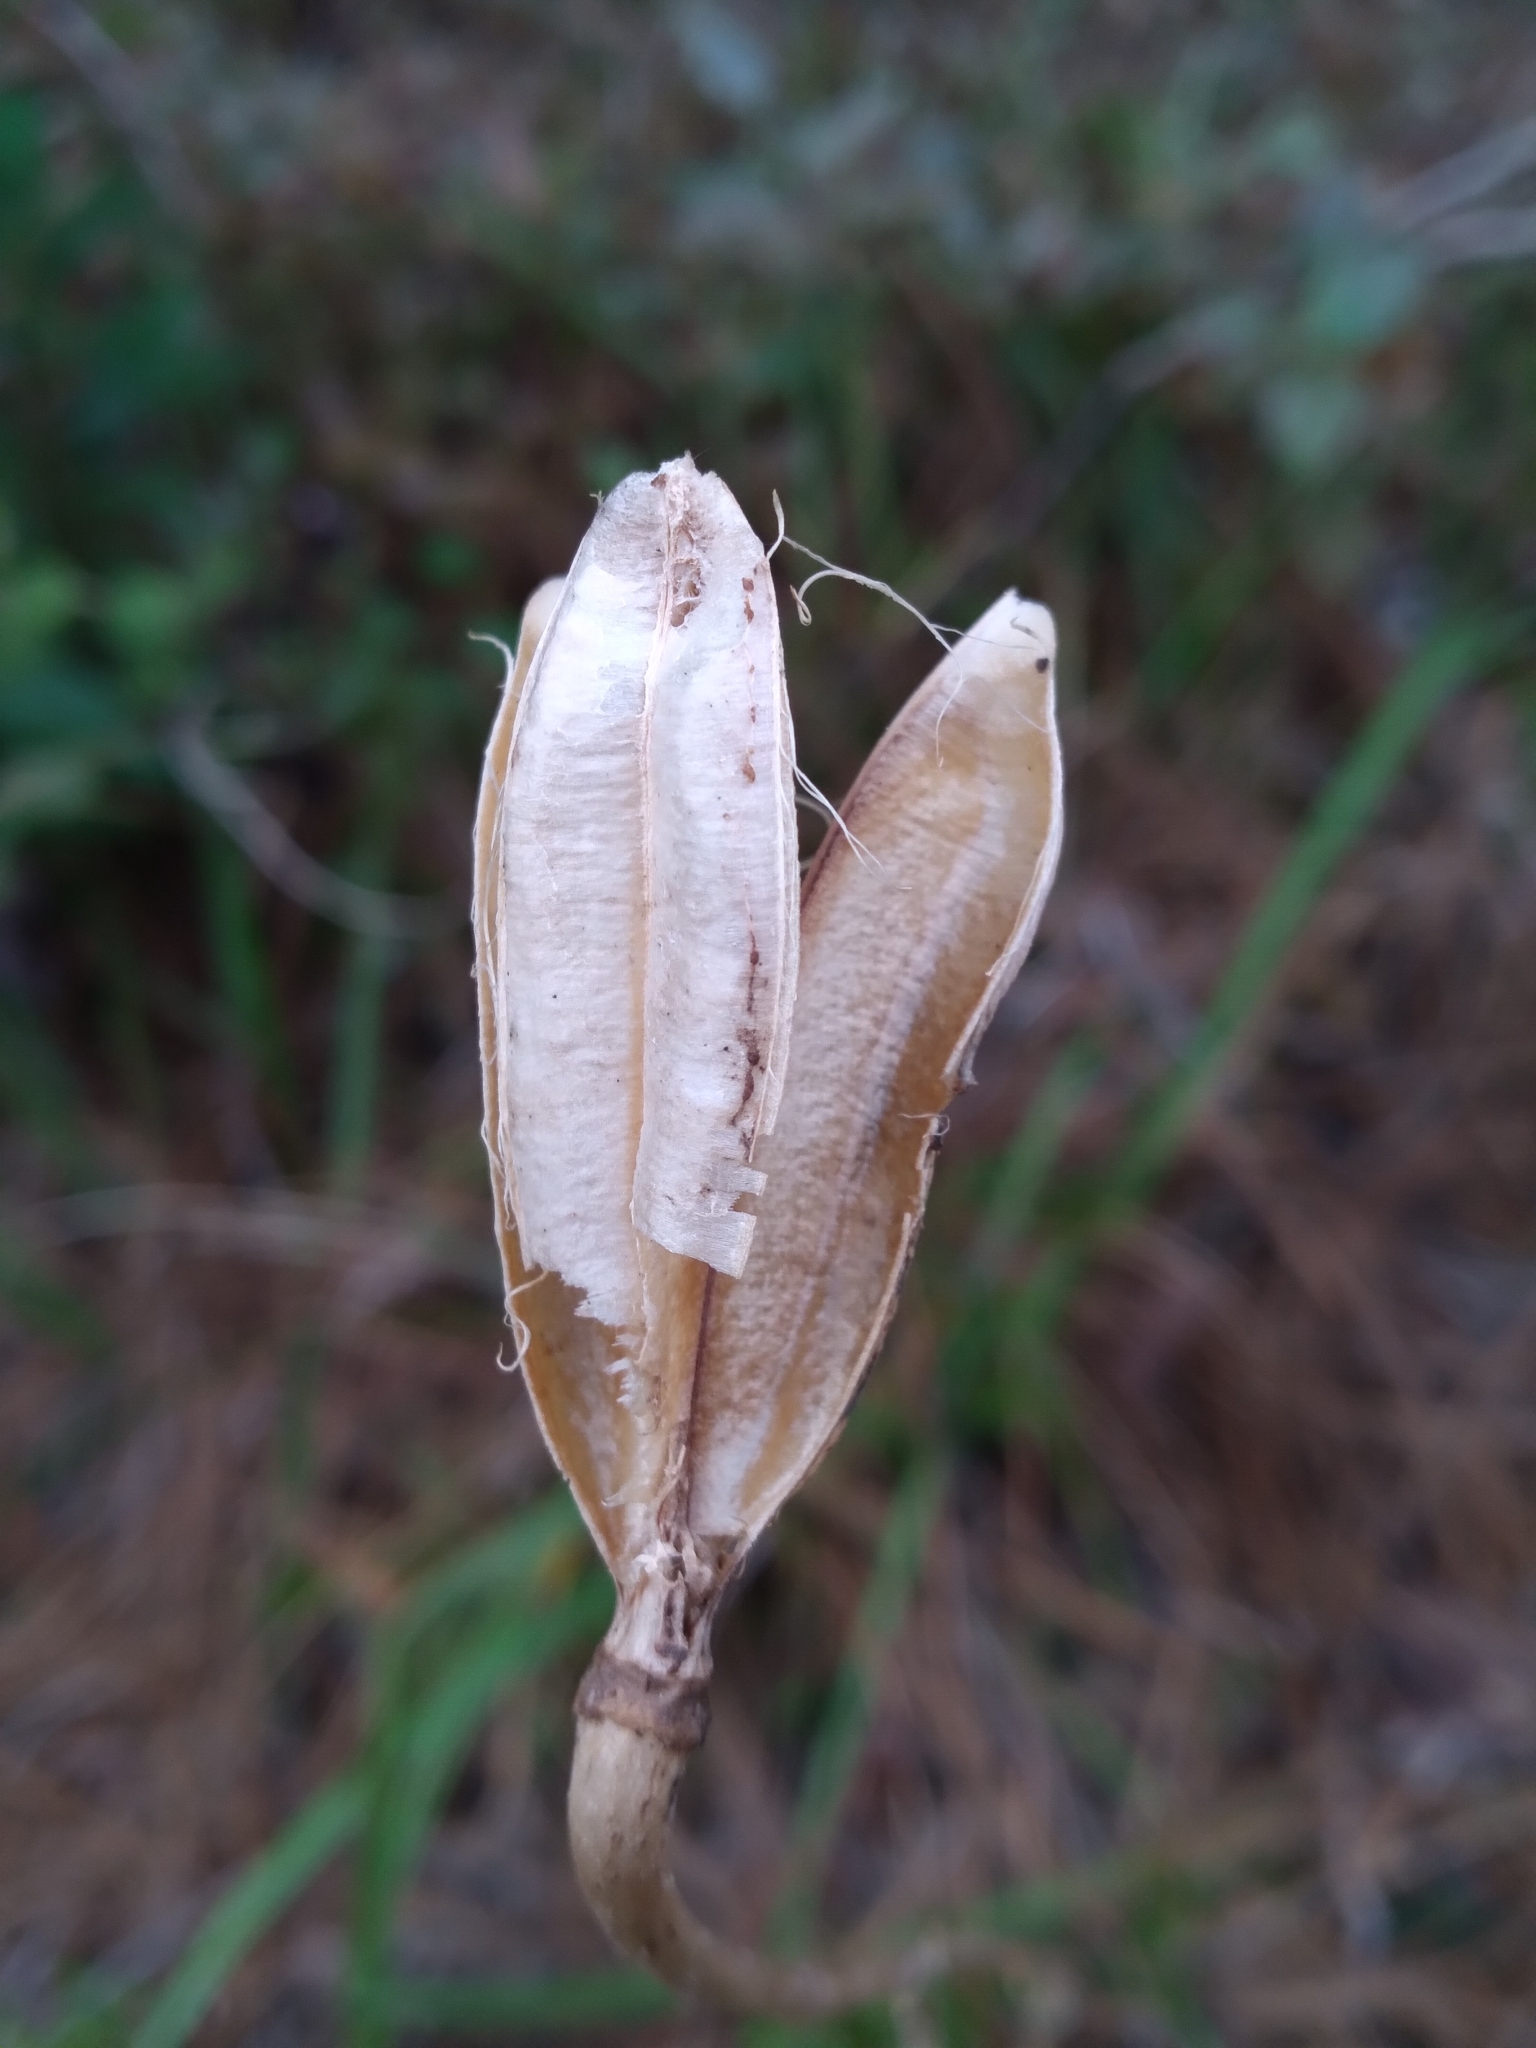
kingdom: Plantae
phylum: Tracheophyta
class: Liliopsida
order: Liliales
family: Liliaceae
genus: Lilium
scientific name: Lilium catesbaei
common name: Catesby's lily
